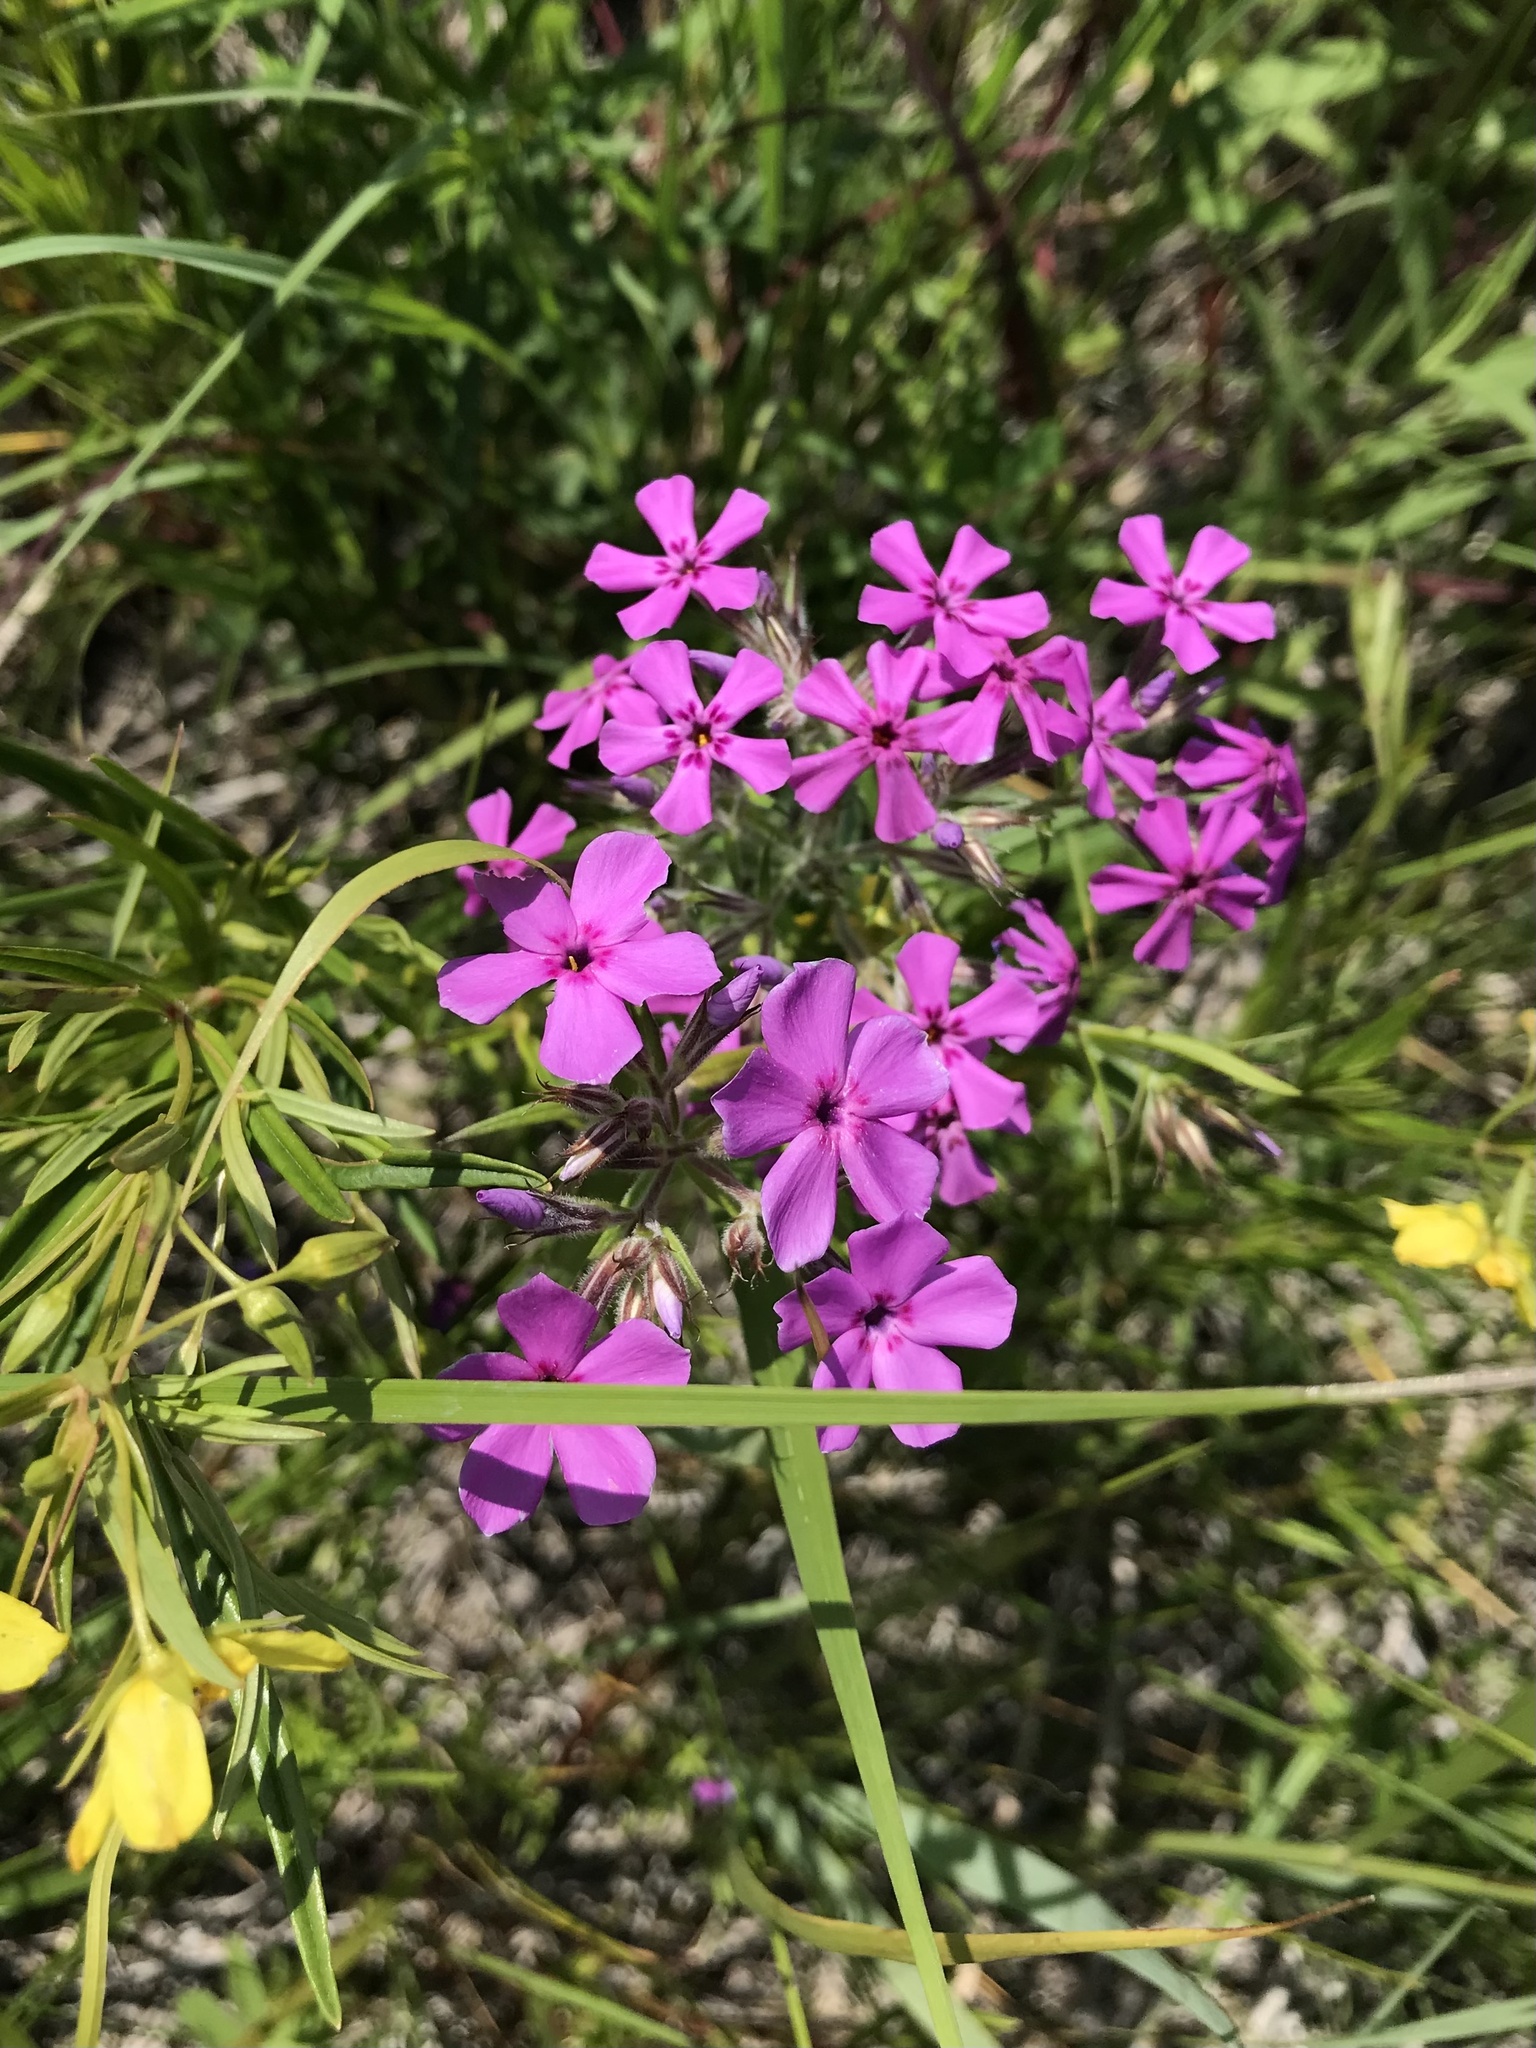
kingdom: Plantae
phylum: Tracheophyta
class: Magnoliopsida
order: Ericales
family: Polemoniaceae
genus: Phlox
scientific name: Phlox pilosa
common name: Prairie phlox
